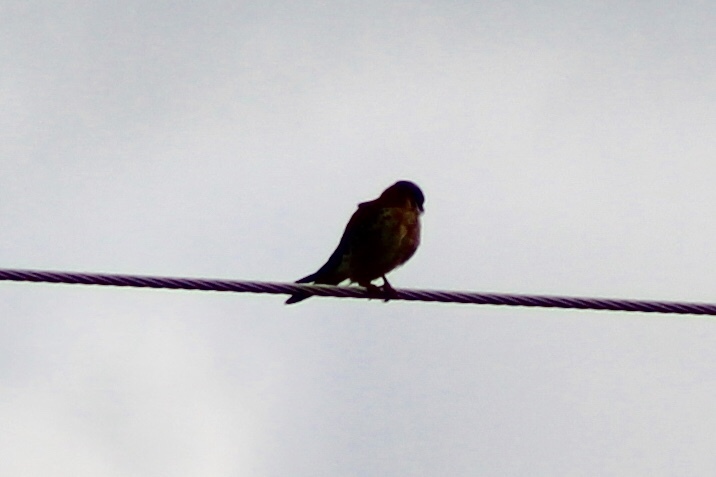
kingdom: Animalia
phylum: Chordata
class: Aves
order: Falconiformes
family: Falconidae
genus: Falco
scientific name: Falco sparverius
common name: American kestrel
